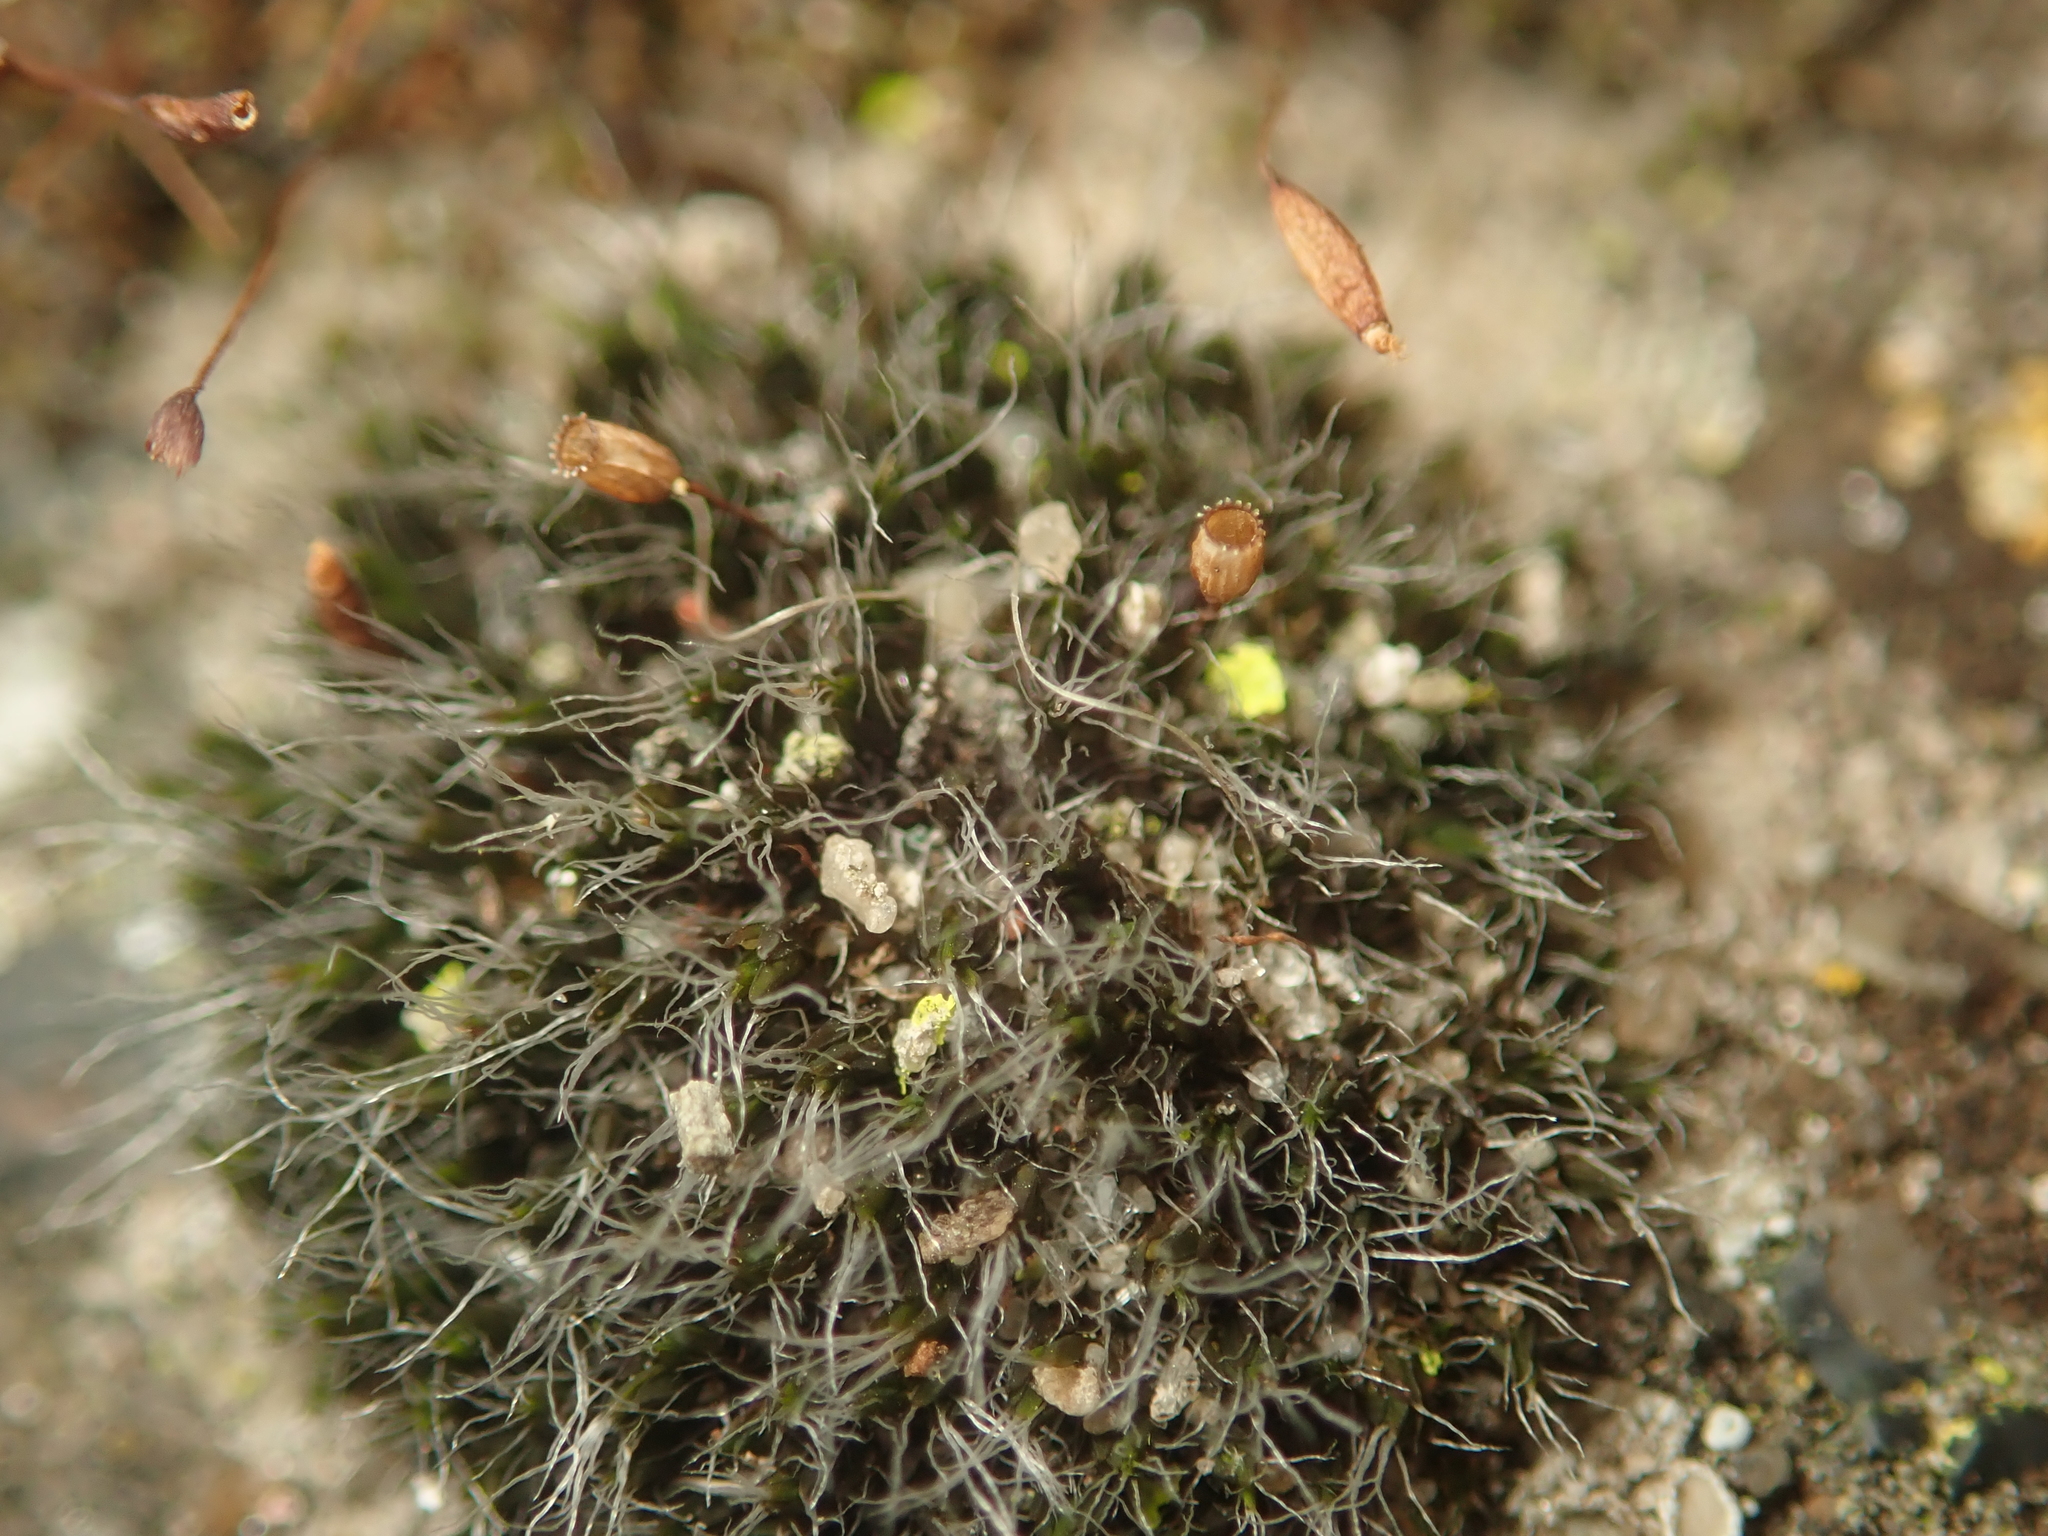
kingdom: Plantae
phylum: Bryophyta
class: Bryopsida
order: Grimmiales
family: Grimmiaceae
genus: Grimmia
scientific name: Grimmia pulvinata
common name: Grey-cushioned grimmia
